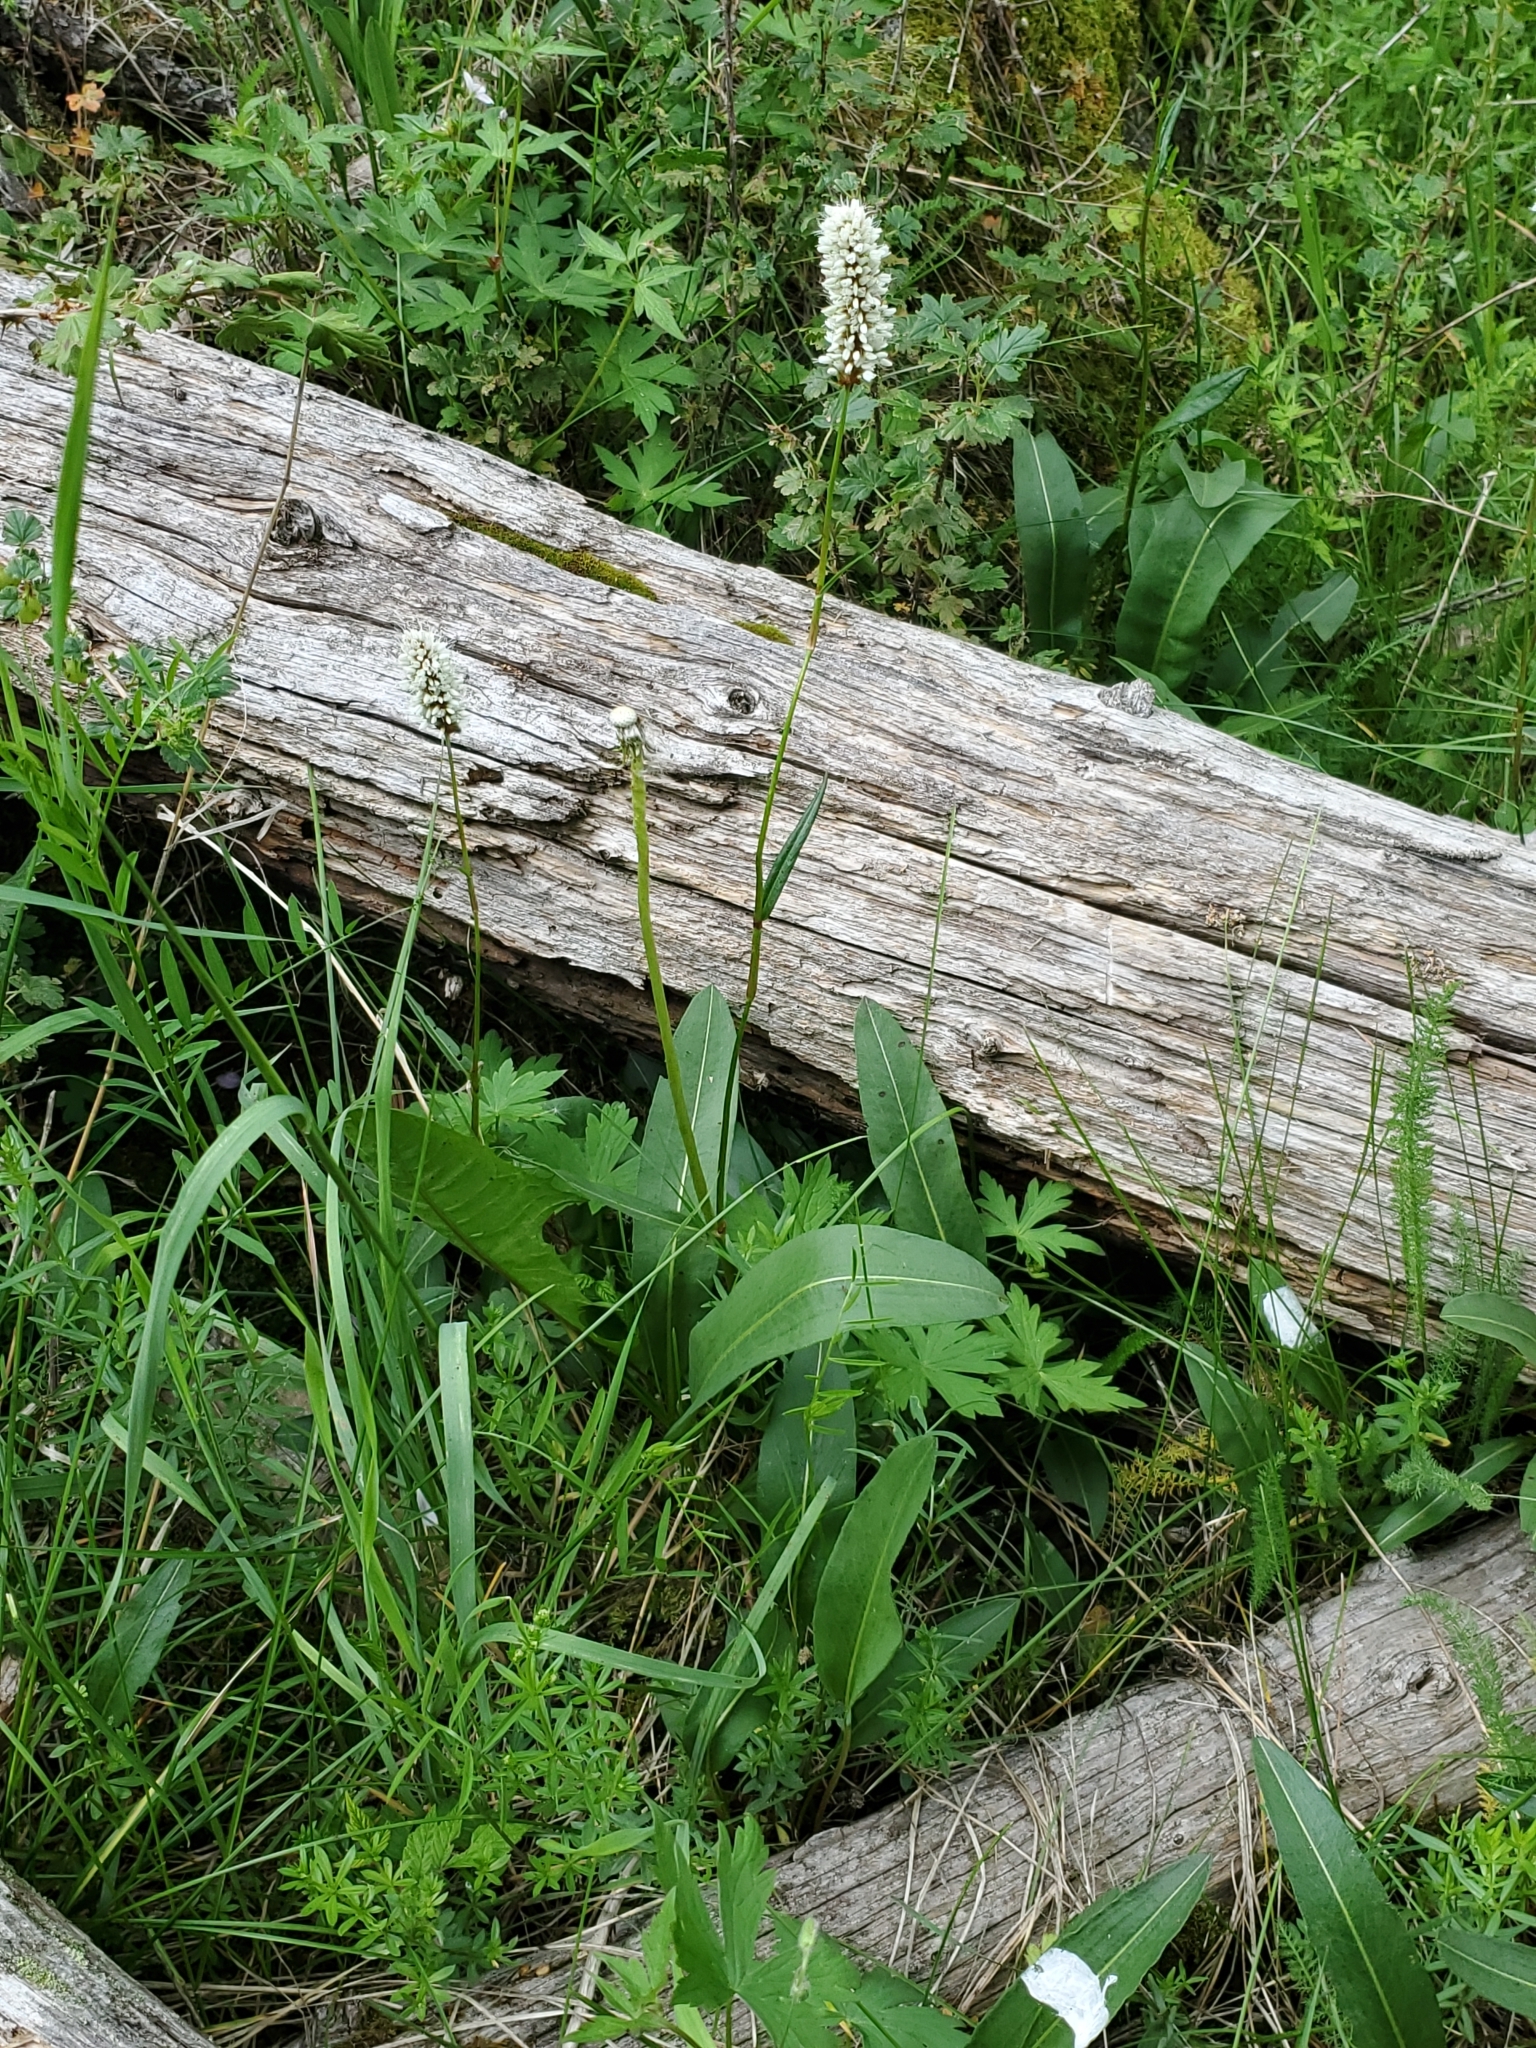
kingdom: Plantae
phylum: Tracheophyta
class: Magnoliopsida
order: Caryophyllales
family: Polygonaceae
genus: Bistorta
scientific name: Bistorta bistortoides
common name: American bistort
